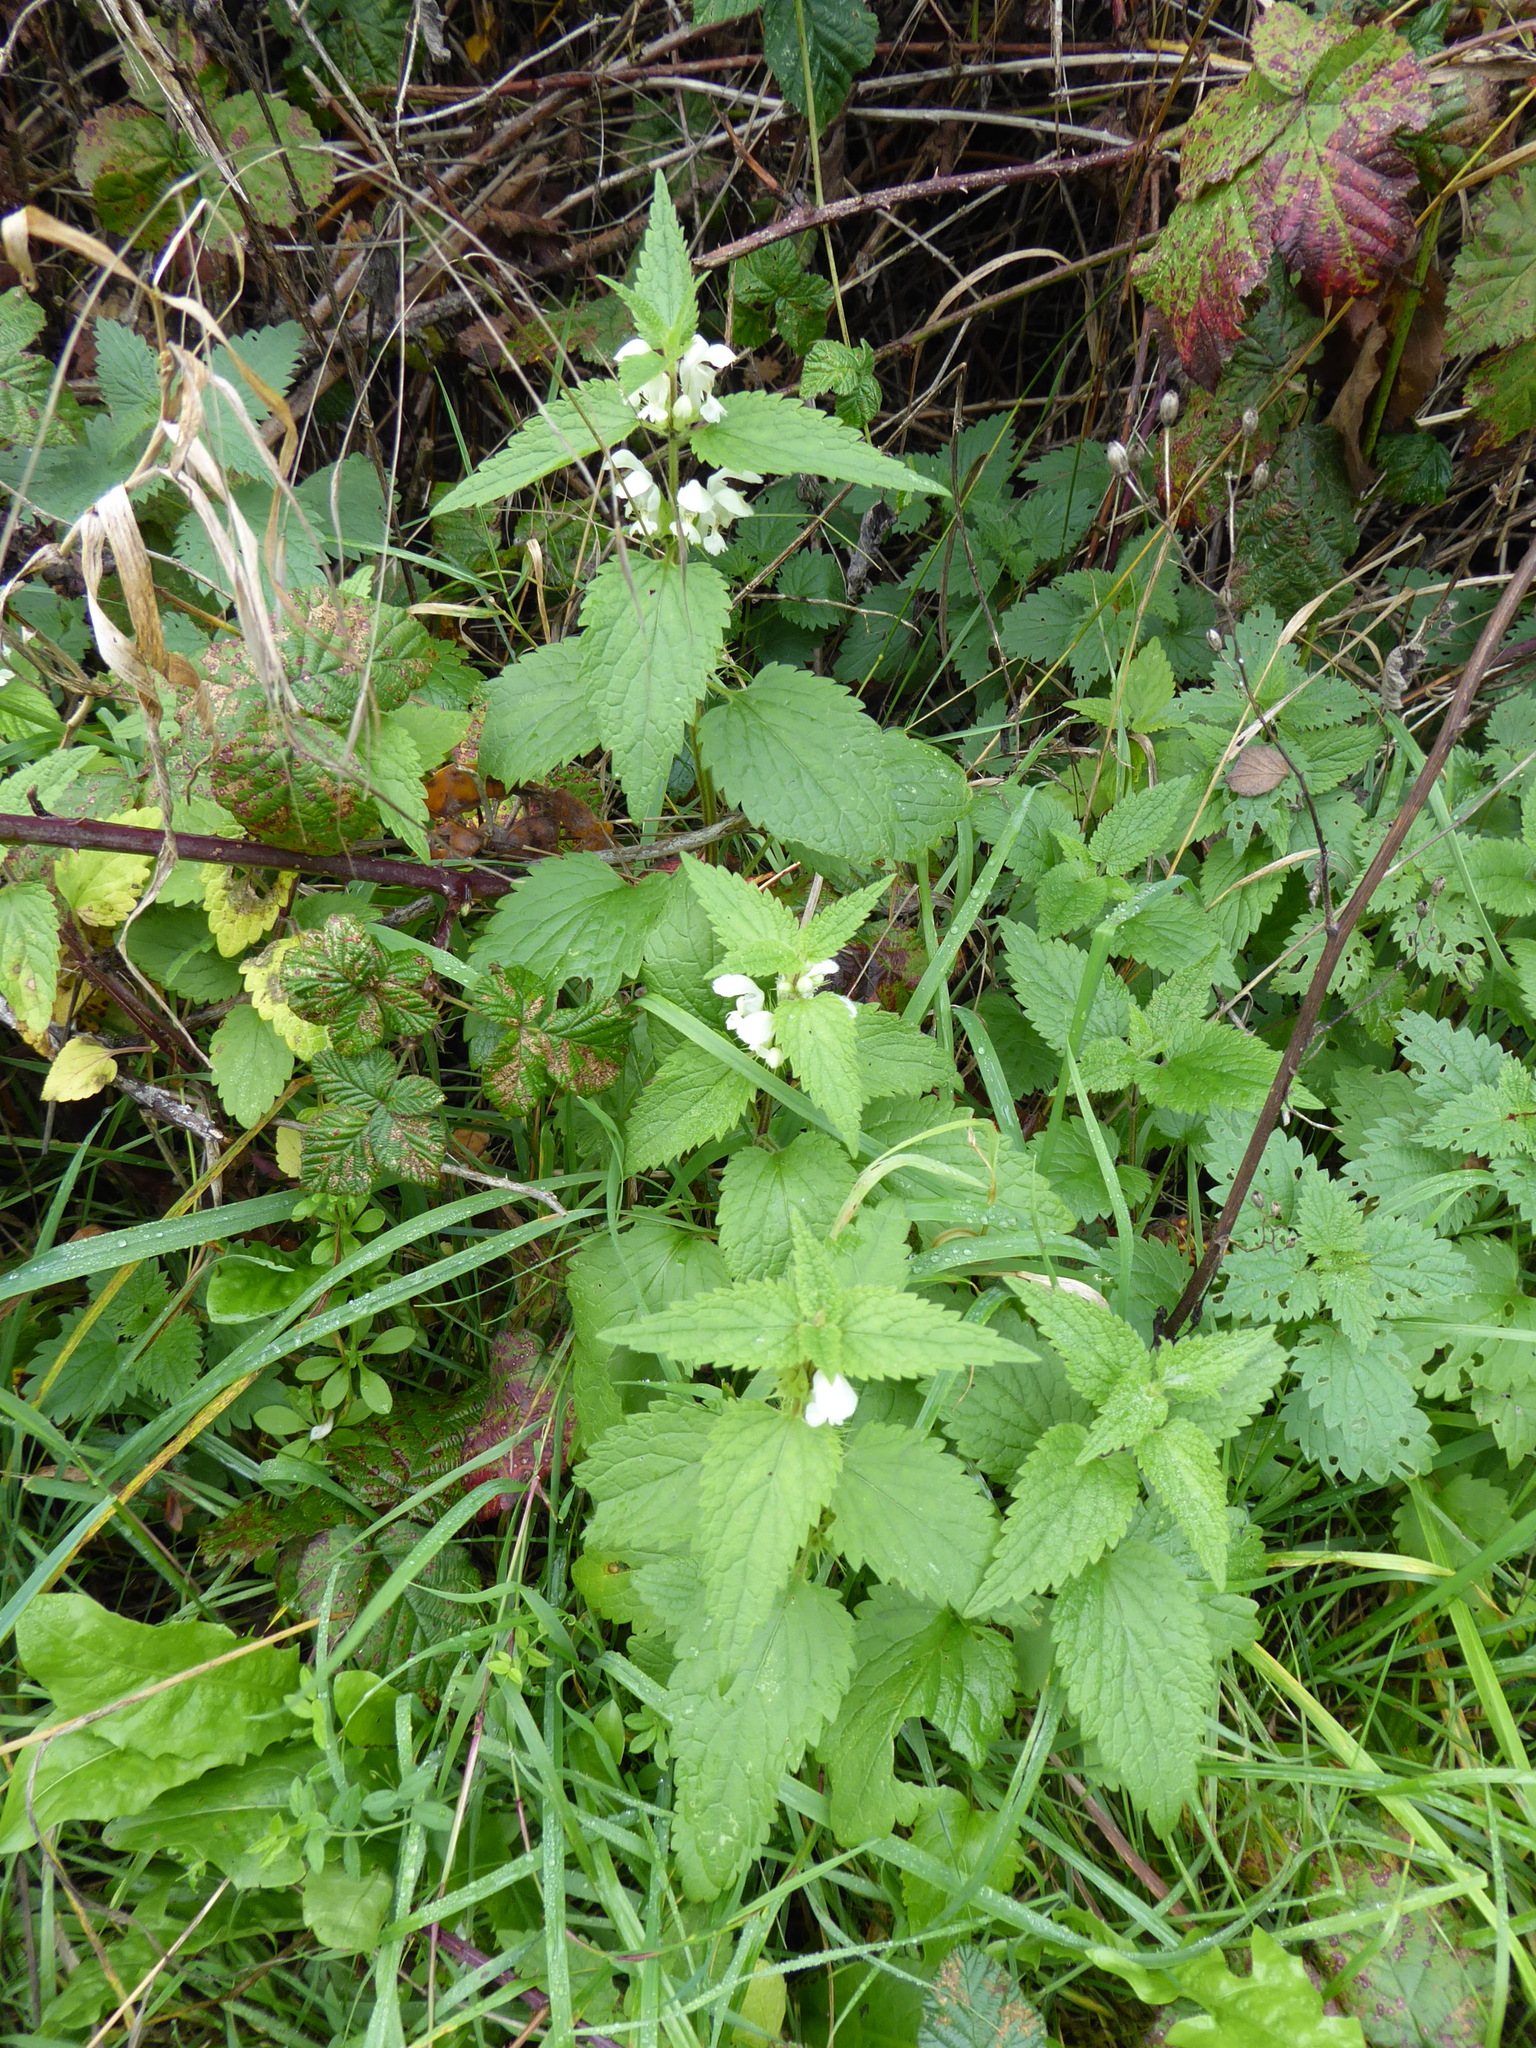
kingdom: Plantae
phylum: Tracheophyta
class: Magnoliopsida
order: Lamiales
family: Lamiaceae
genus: Lamium
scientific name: Lamium album
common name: White dead-nettle
